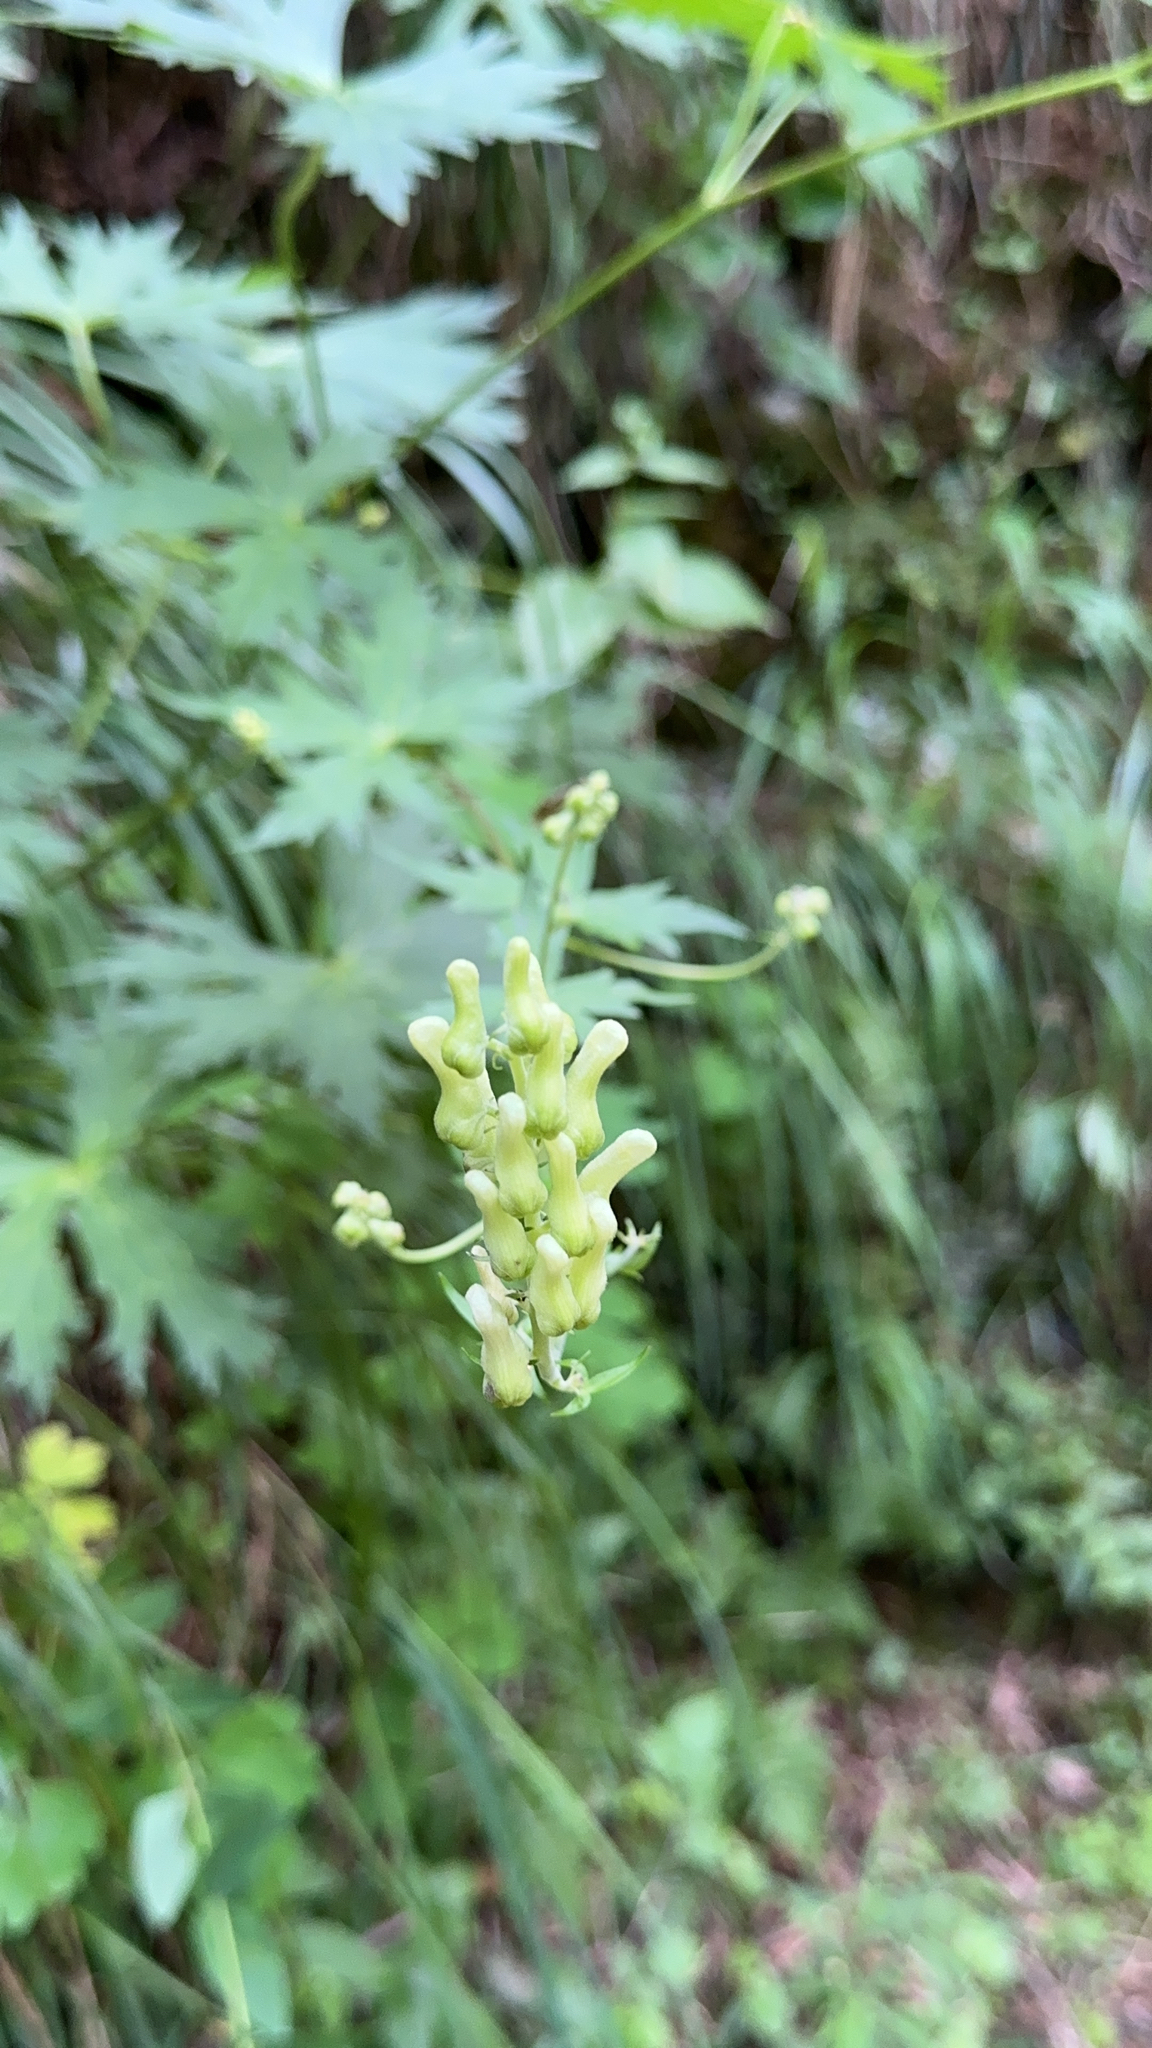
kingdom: Plantae
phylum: Tracheophyta
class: Magnoliopsida
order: Ranunculales
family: Ranunculaceae
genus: Aconitum
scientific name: Aconitum lycoctonum
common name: Wolf's-bane
